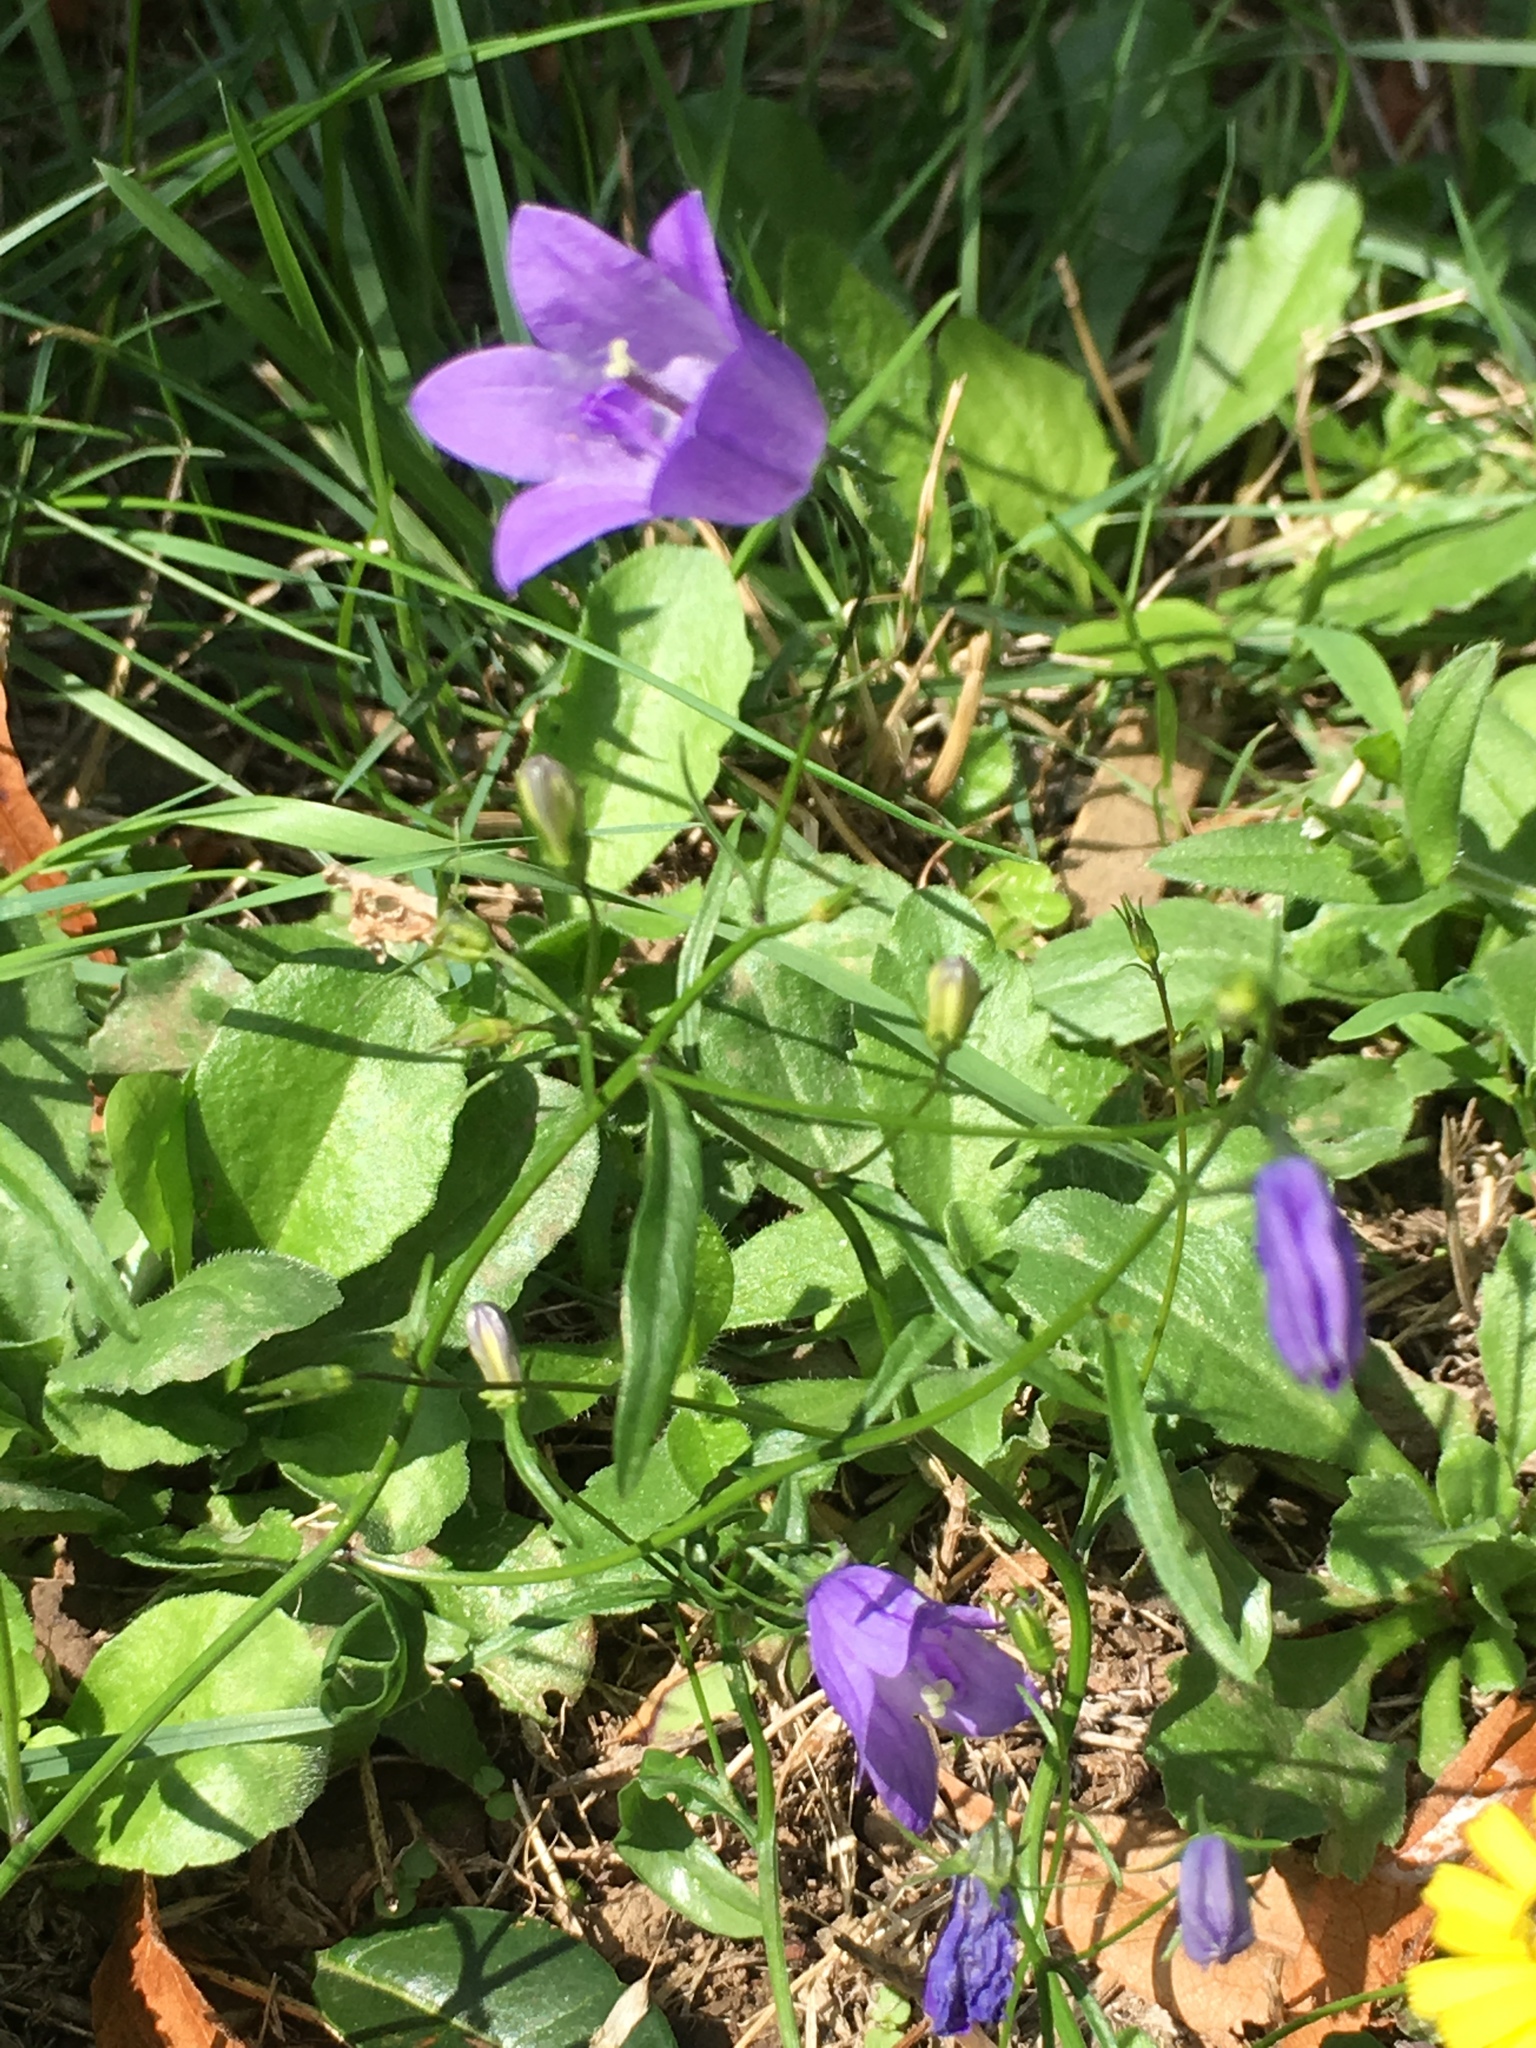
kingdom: Plantae
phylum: Tracheophyta
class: Magnoliopsida
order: Asterales
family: Campanulaceae
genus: Campanula
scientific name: Campanula rotundifolia
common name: Harebell
